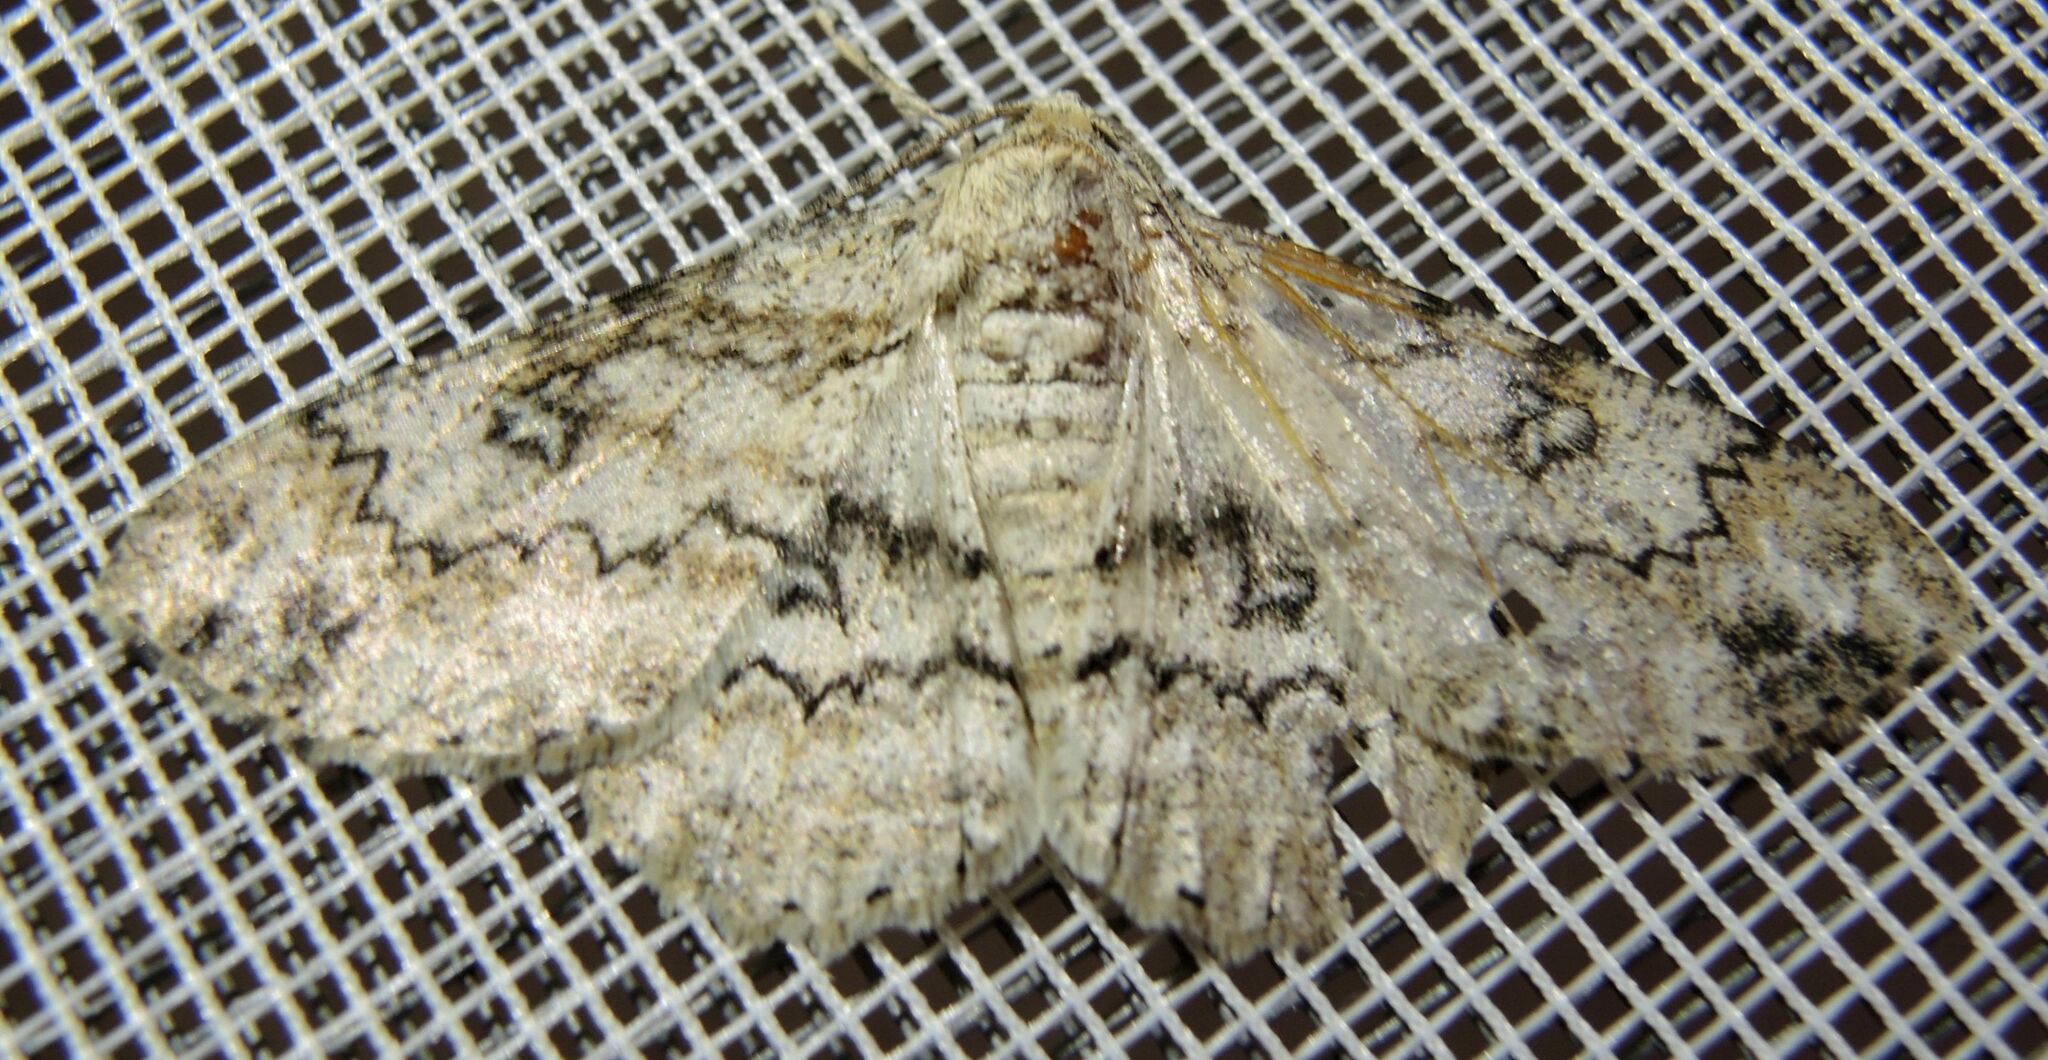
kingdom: Animalia
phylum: Arthropoda
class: Insecta
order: Lepidoptera
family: Geometridae
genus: Ascotis
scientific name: Ascotis selenaria
